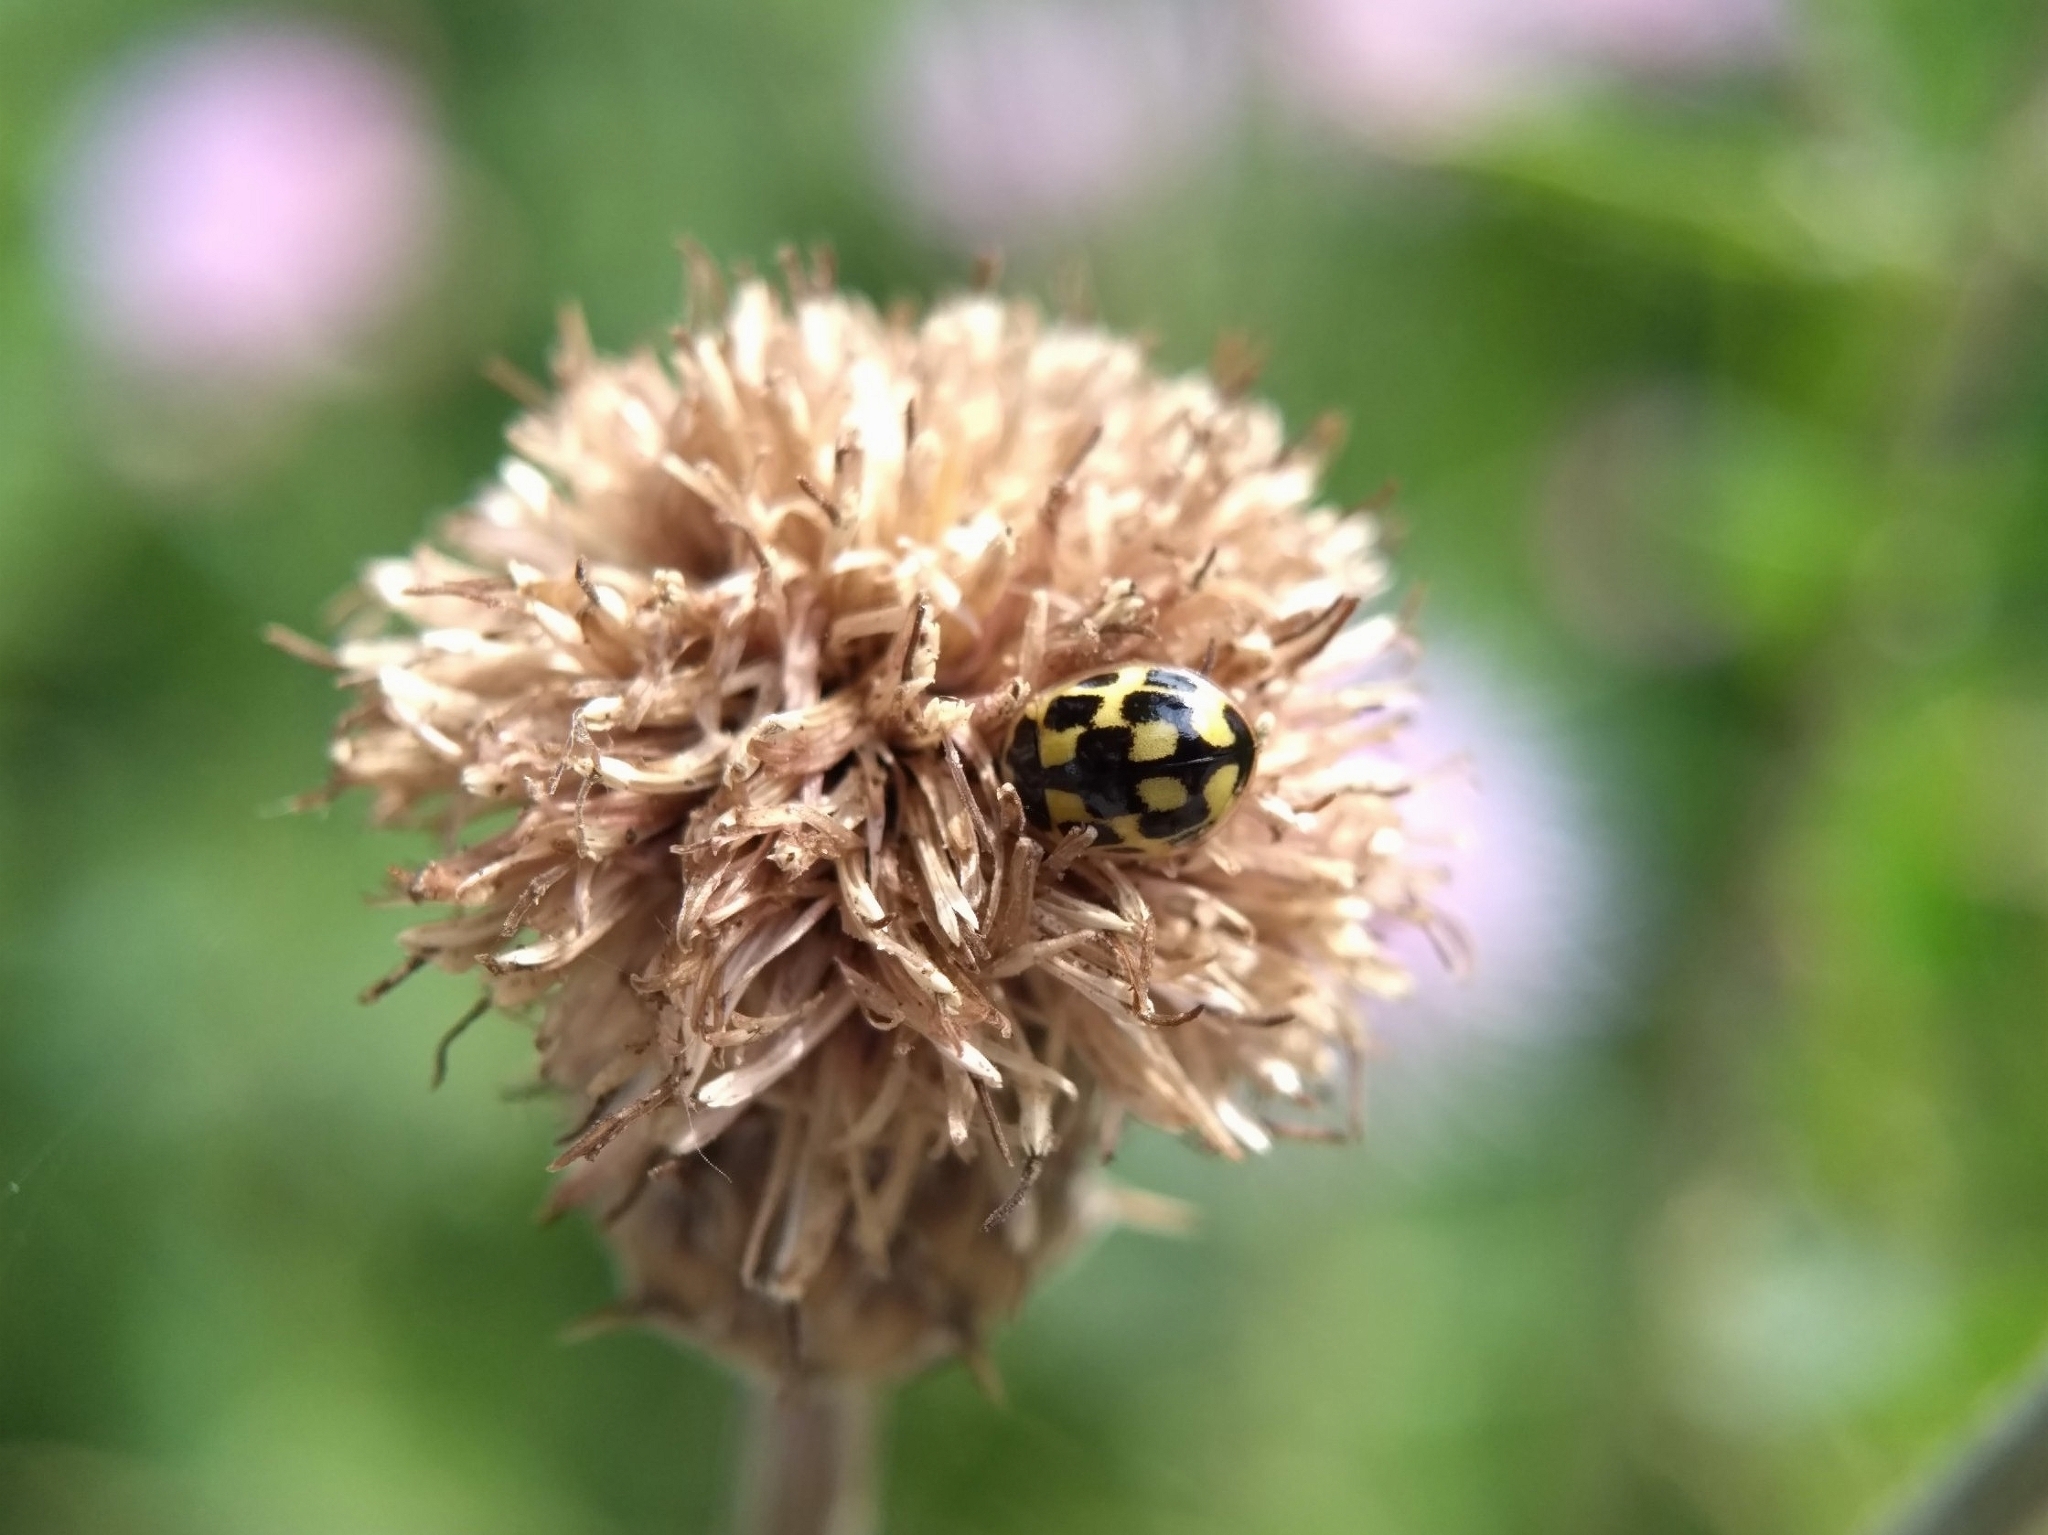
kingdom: Animalia
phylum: Arthropoda
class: Insecta
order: Coleoptera
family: Coccinellidae
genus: Propylaea
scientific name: Propylaea quatuordecimpunctata
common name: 14-spotted ladybird beetle
